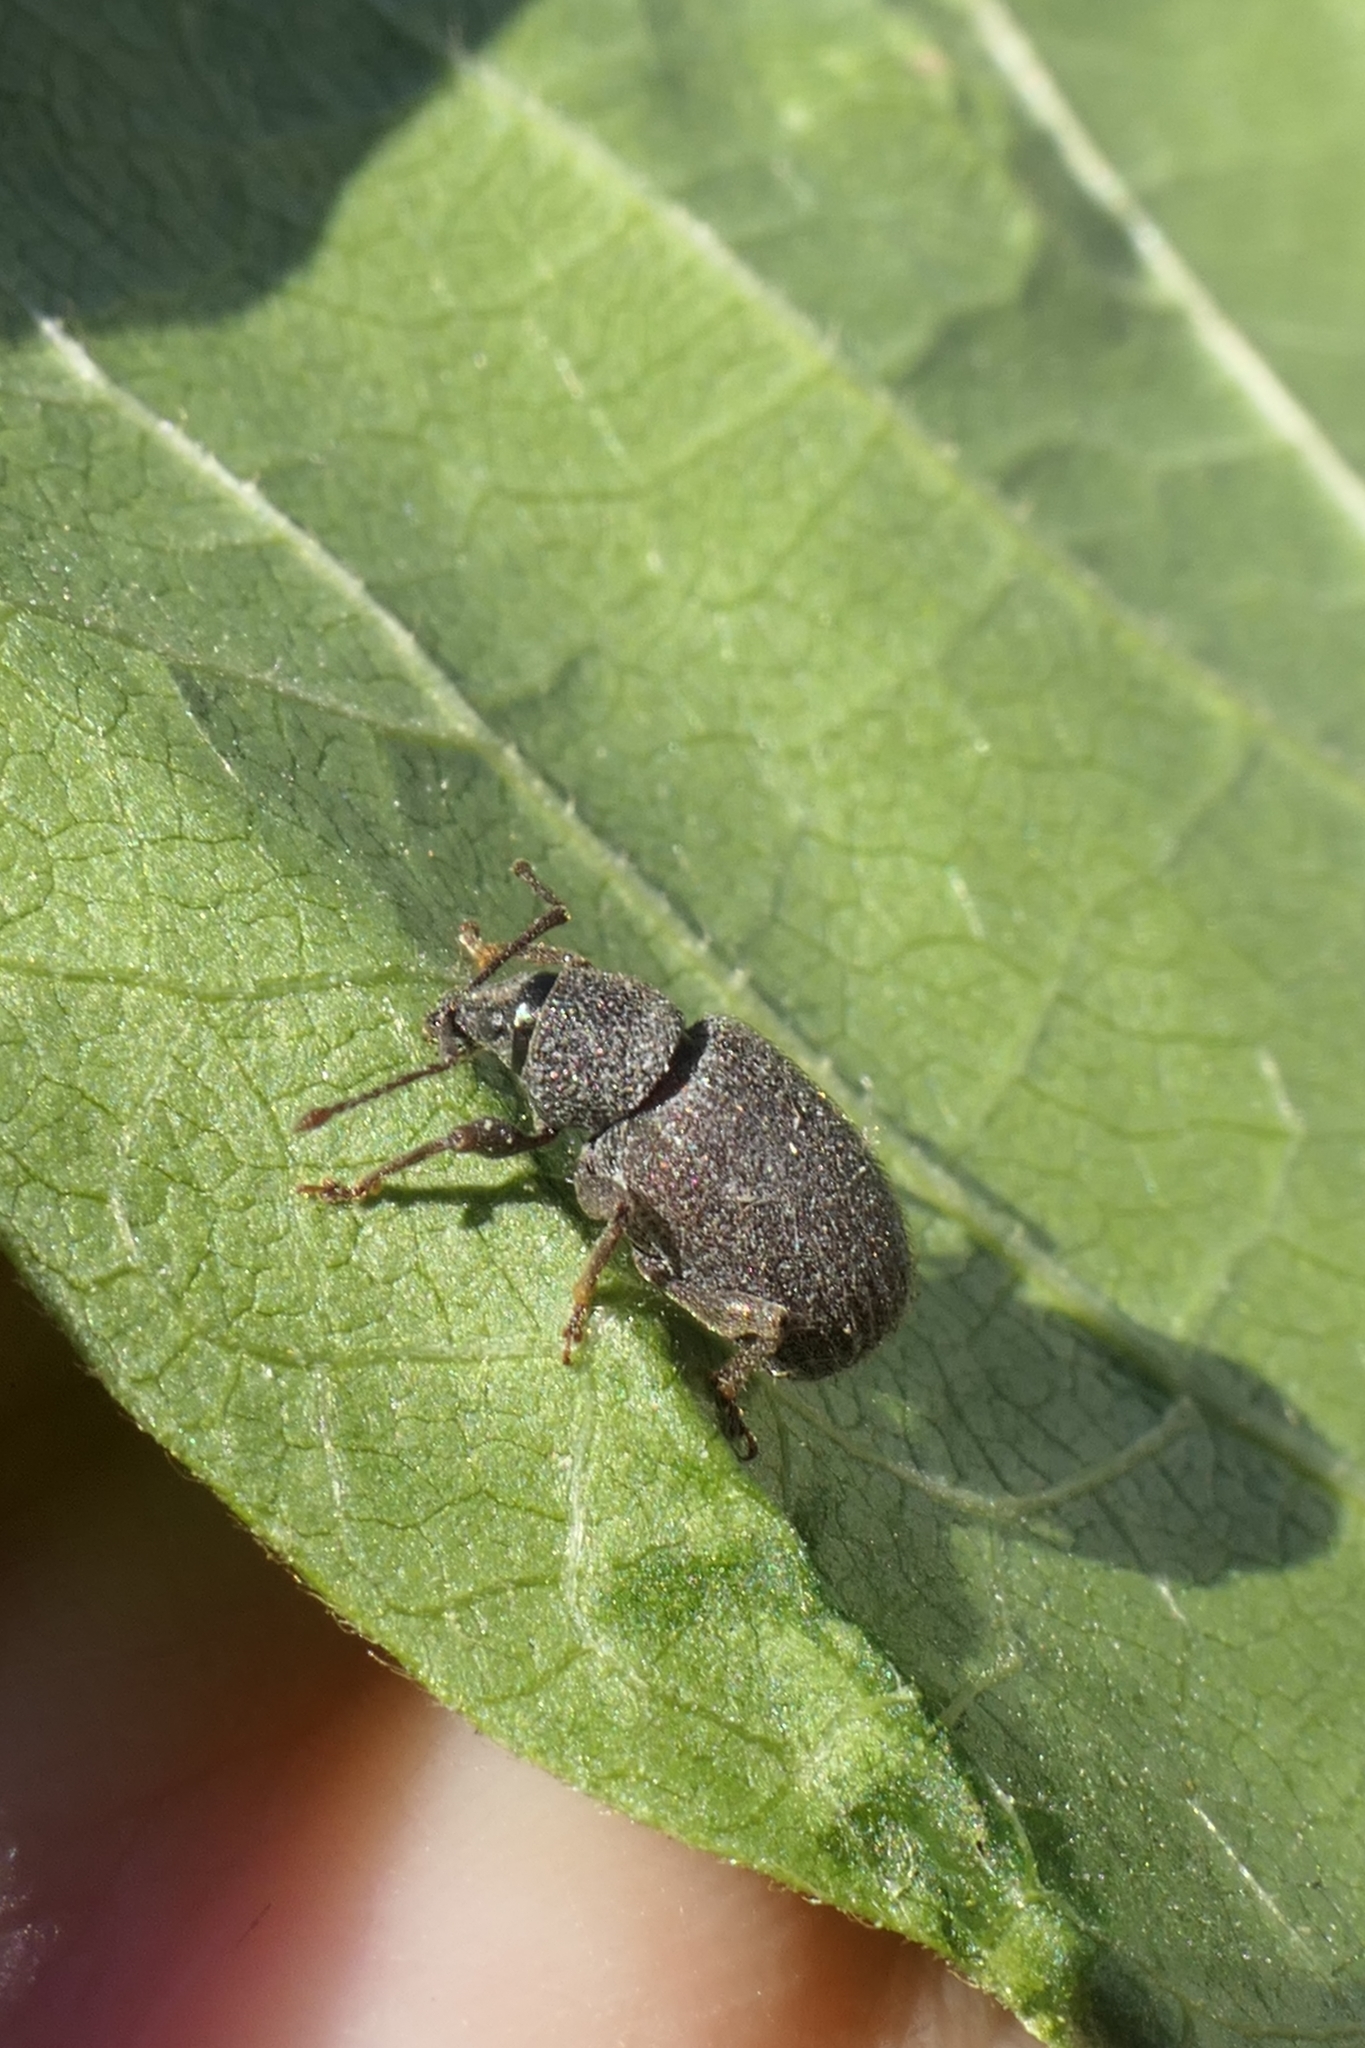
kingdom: Animalia
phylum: Arthropoda
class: Insecta
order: Coleoptera
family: Curculionidae
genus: Otiorhynchus
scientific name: Otiorhynchus rugosostriatus
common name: Weevil
